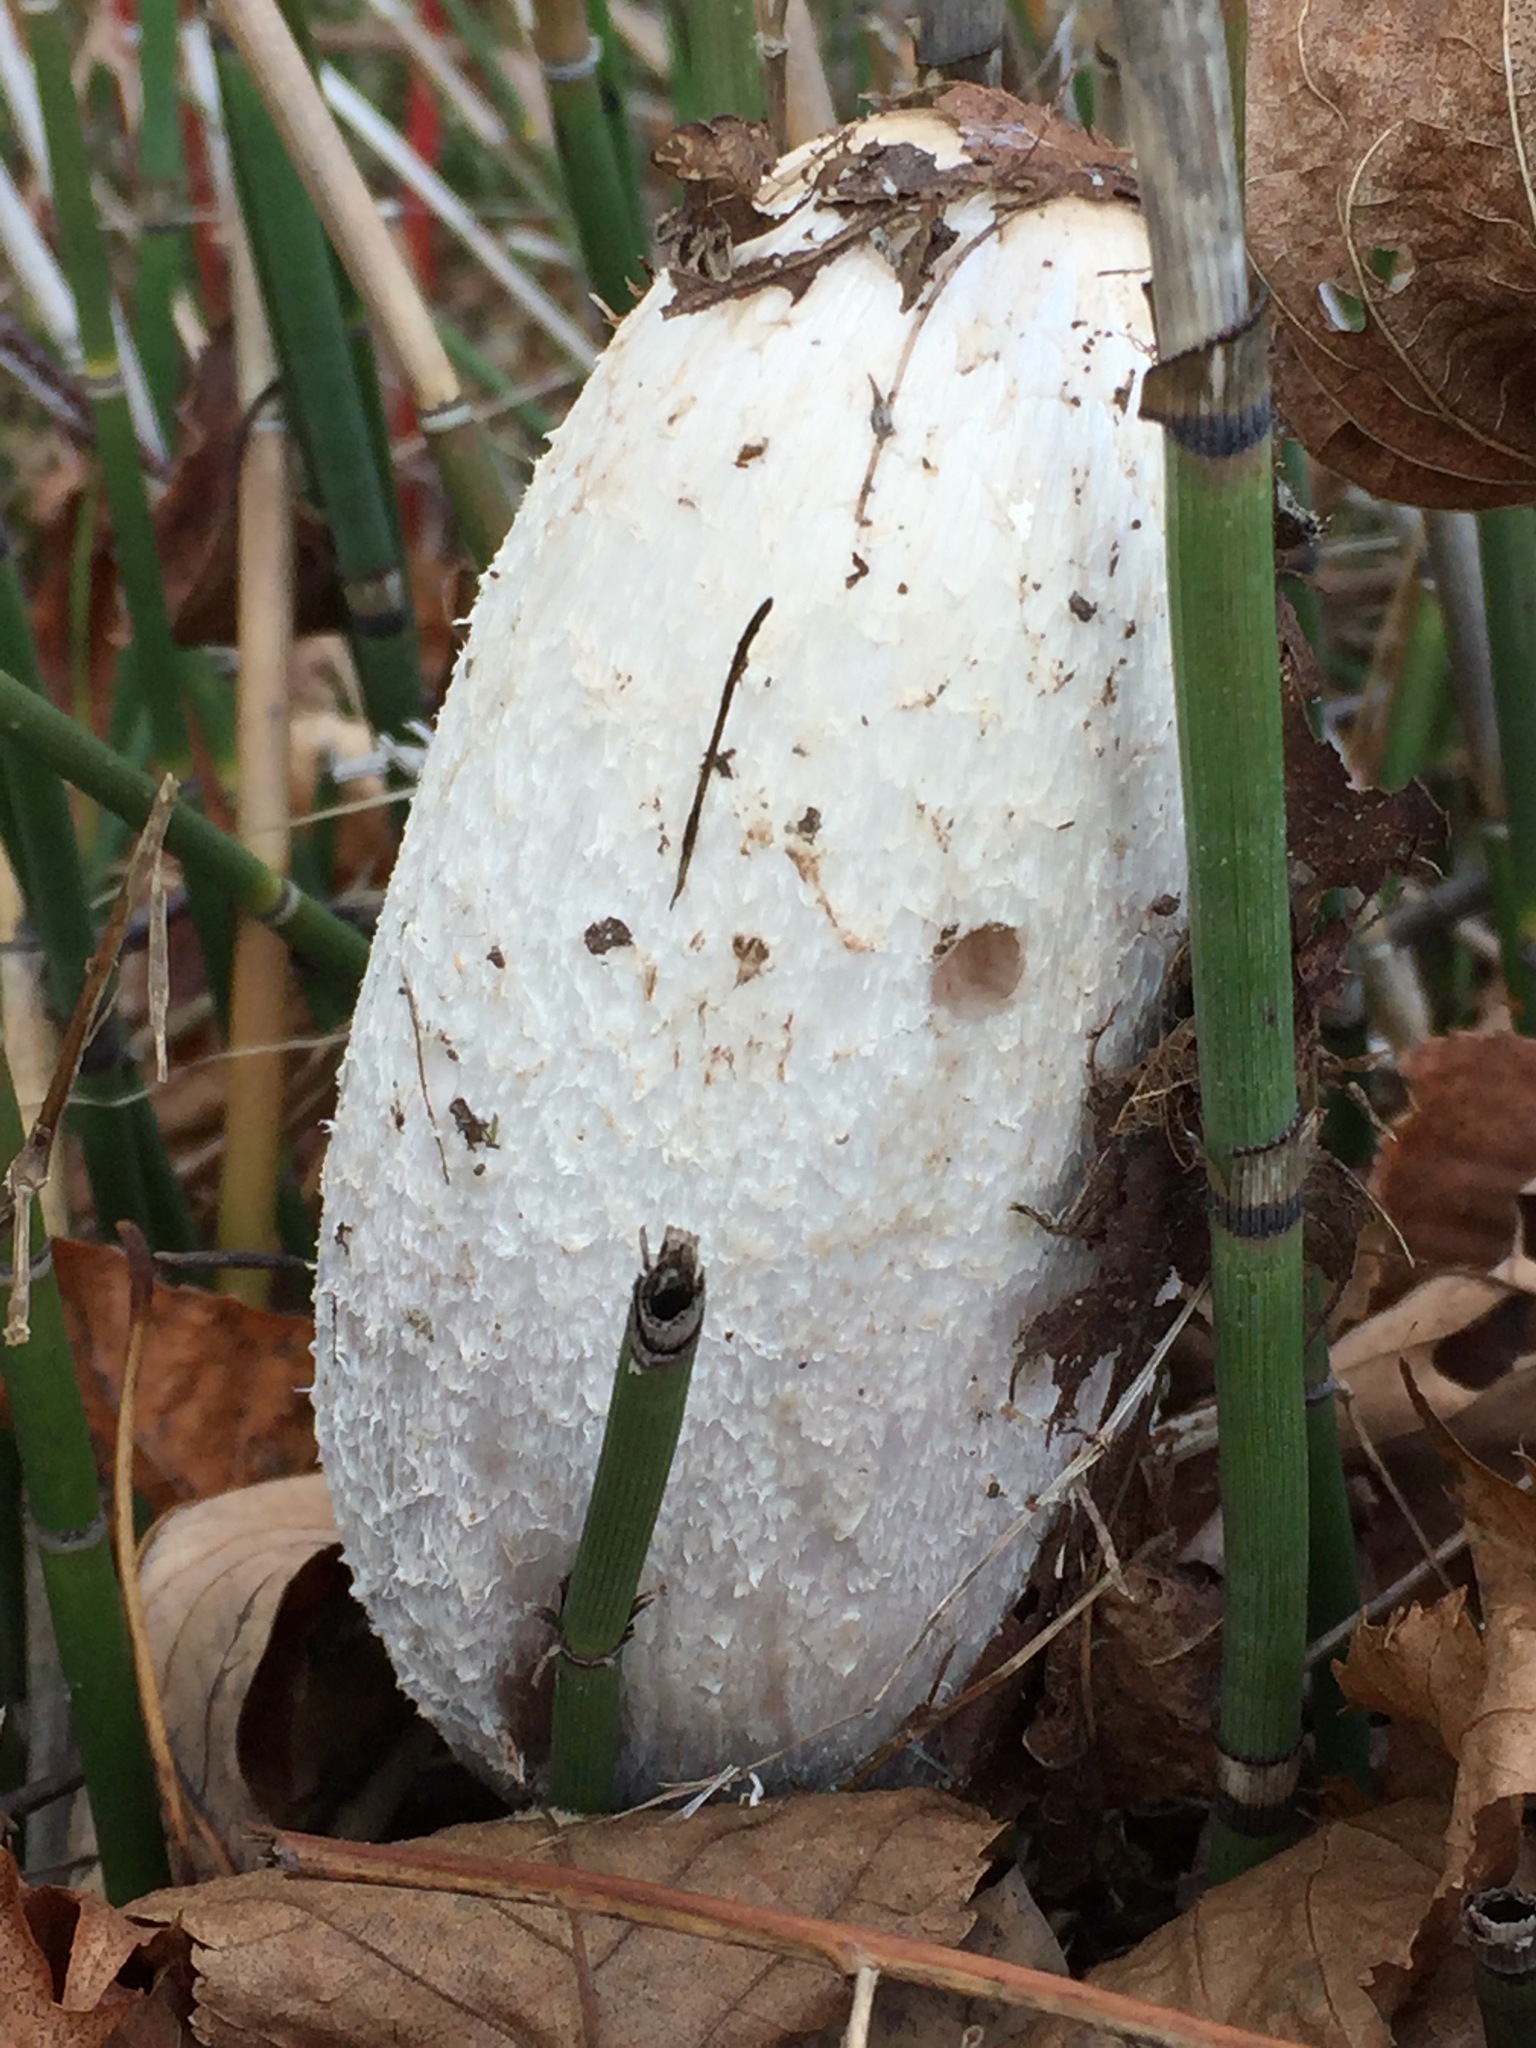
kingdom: Fungi
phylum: Basidiomycota
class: Agaricomycetes
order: Agaricales
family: Agaricaceae
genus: Coprinus
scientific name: Coprinus comatus
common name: Lawyer's wig
